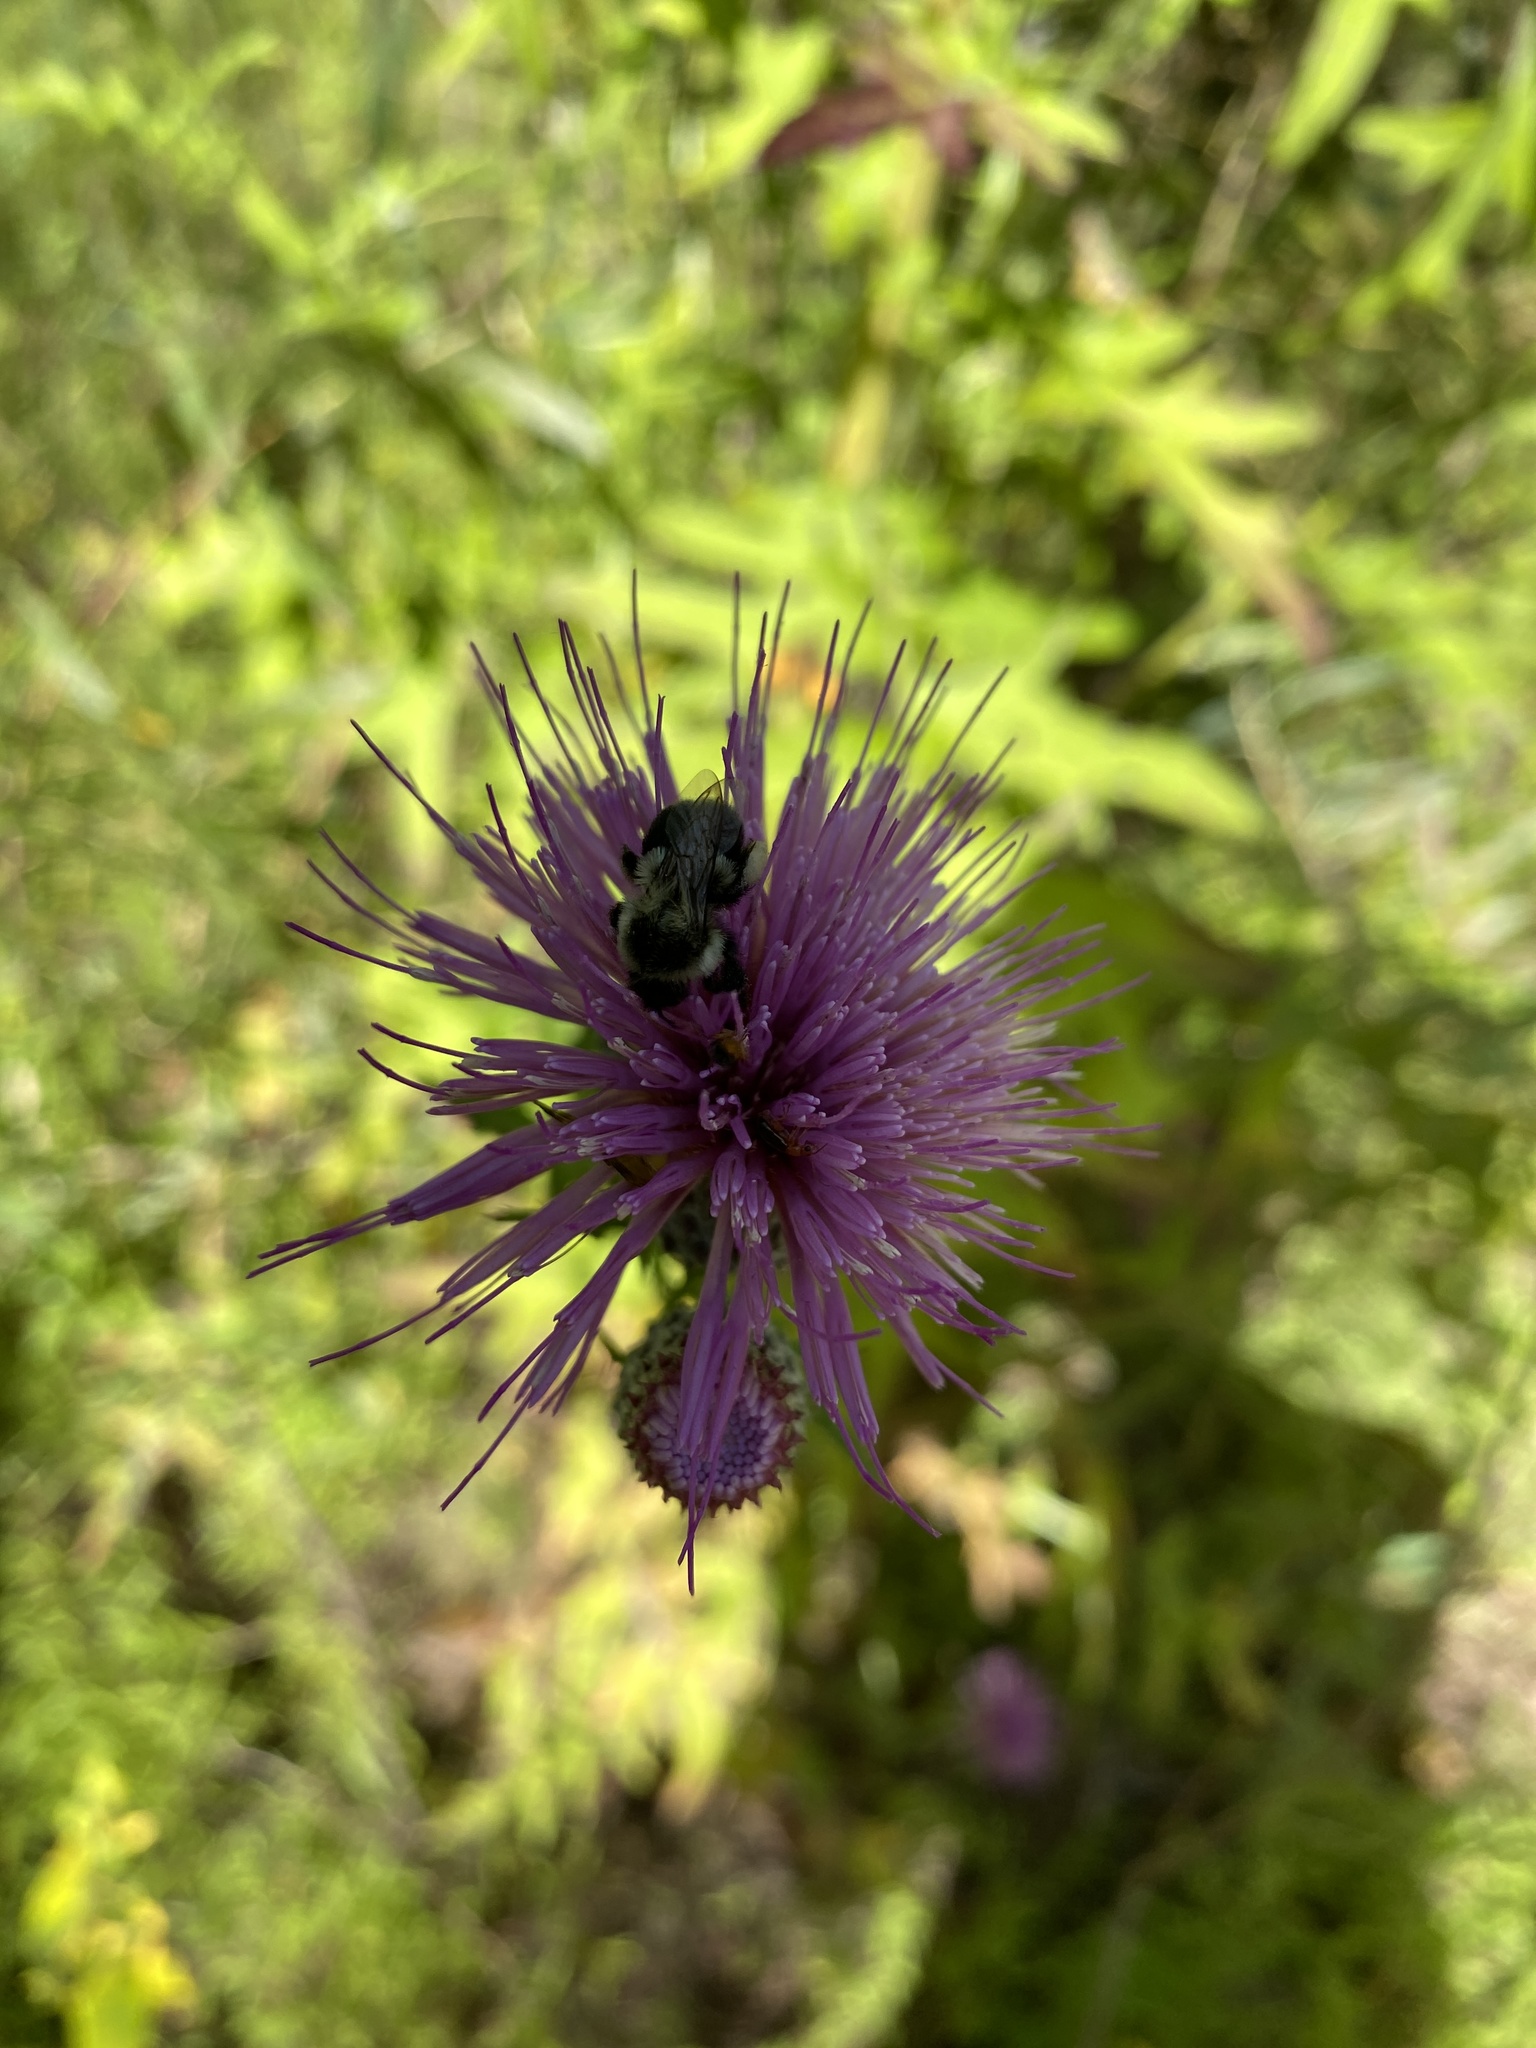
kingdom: Animalia
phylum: Arthropoda
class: Insecta
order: Hymenoptera
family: Apidae
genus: Bombus
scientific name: Bombus impatiens
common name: Common eastern bumble bee
